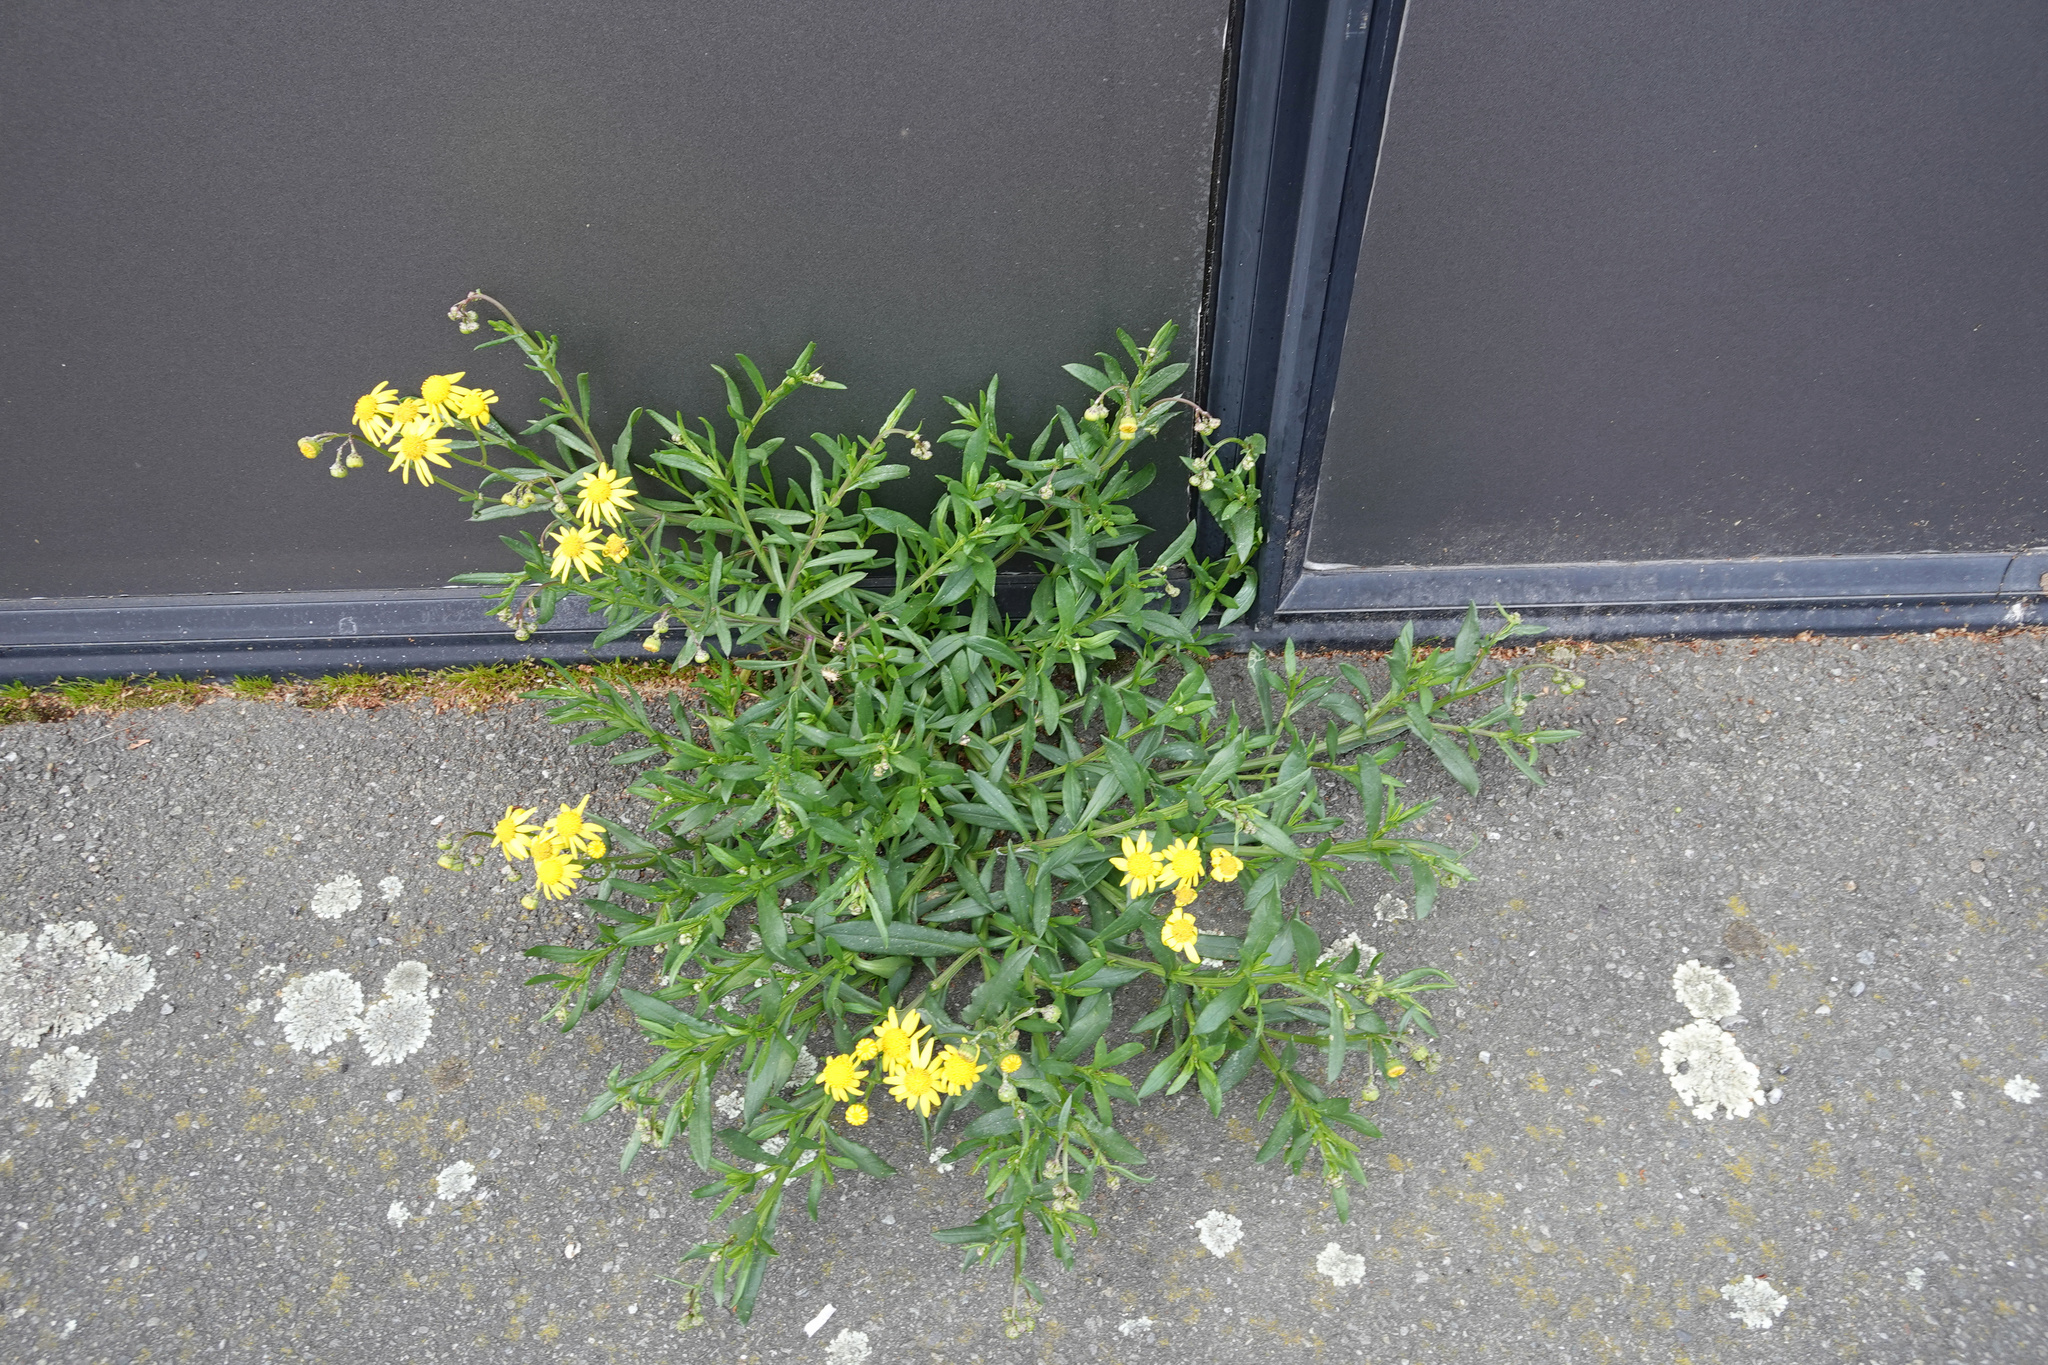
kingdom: Plantae
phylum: Tracheophyta
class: Magnoliopsida
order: Asterales
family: Asteraceae
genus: Senecio
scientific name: Senecio skirrhodon
